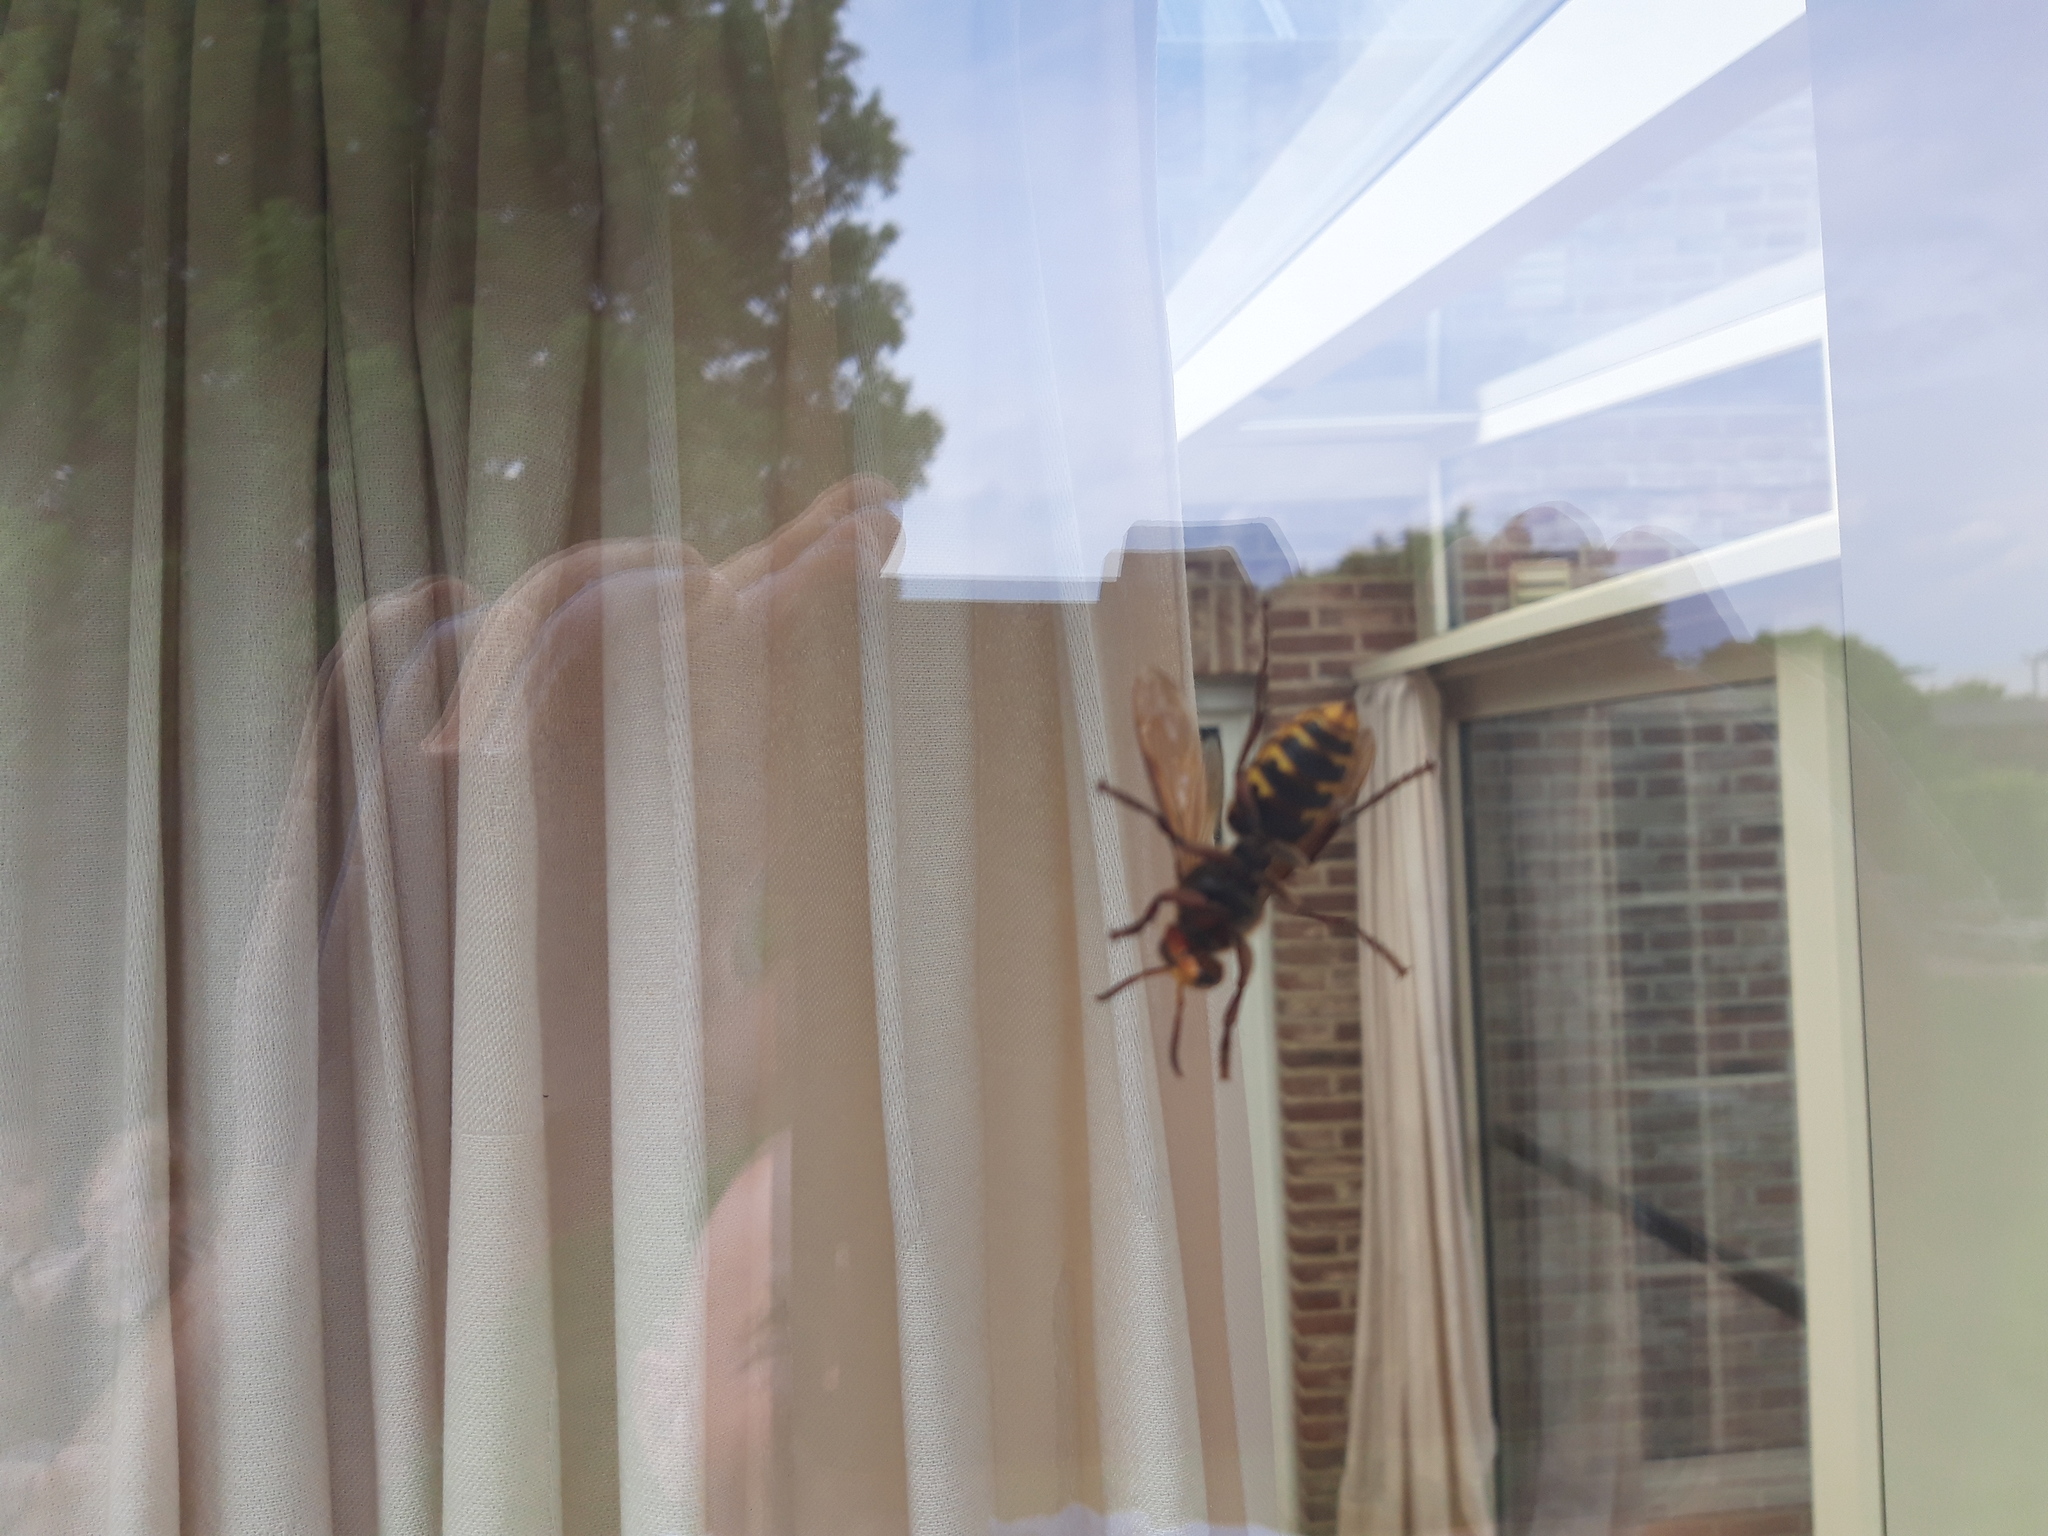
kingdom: Animalia
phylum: Arthropoda
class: Insecta
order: Hymenoptera
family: Vespidae
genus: Vespa
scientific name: Vespa crabro
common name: Hornet
